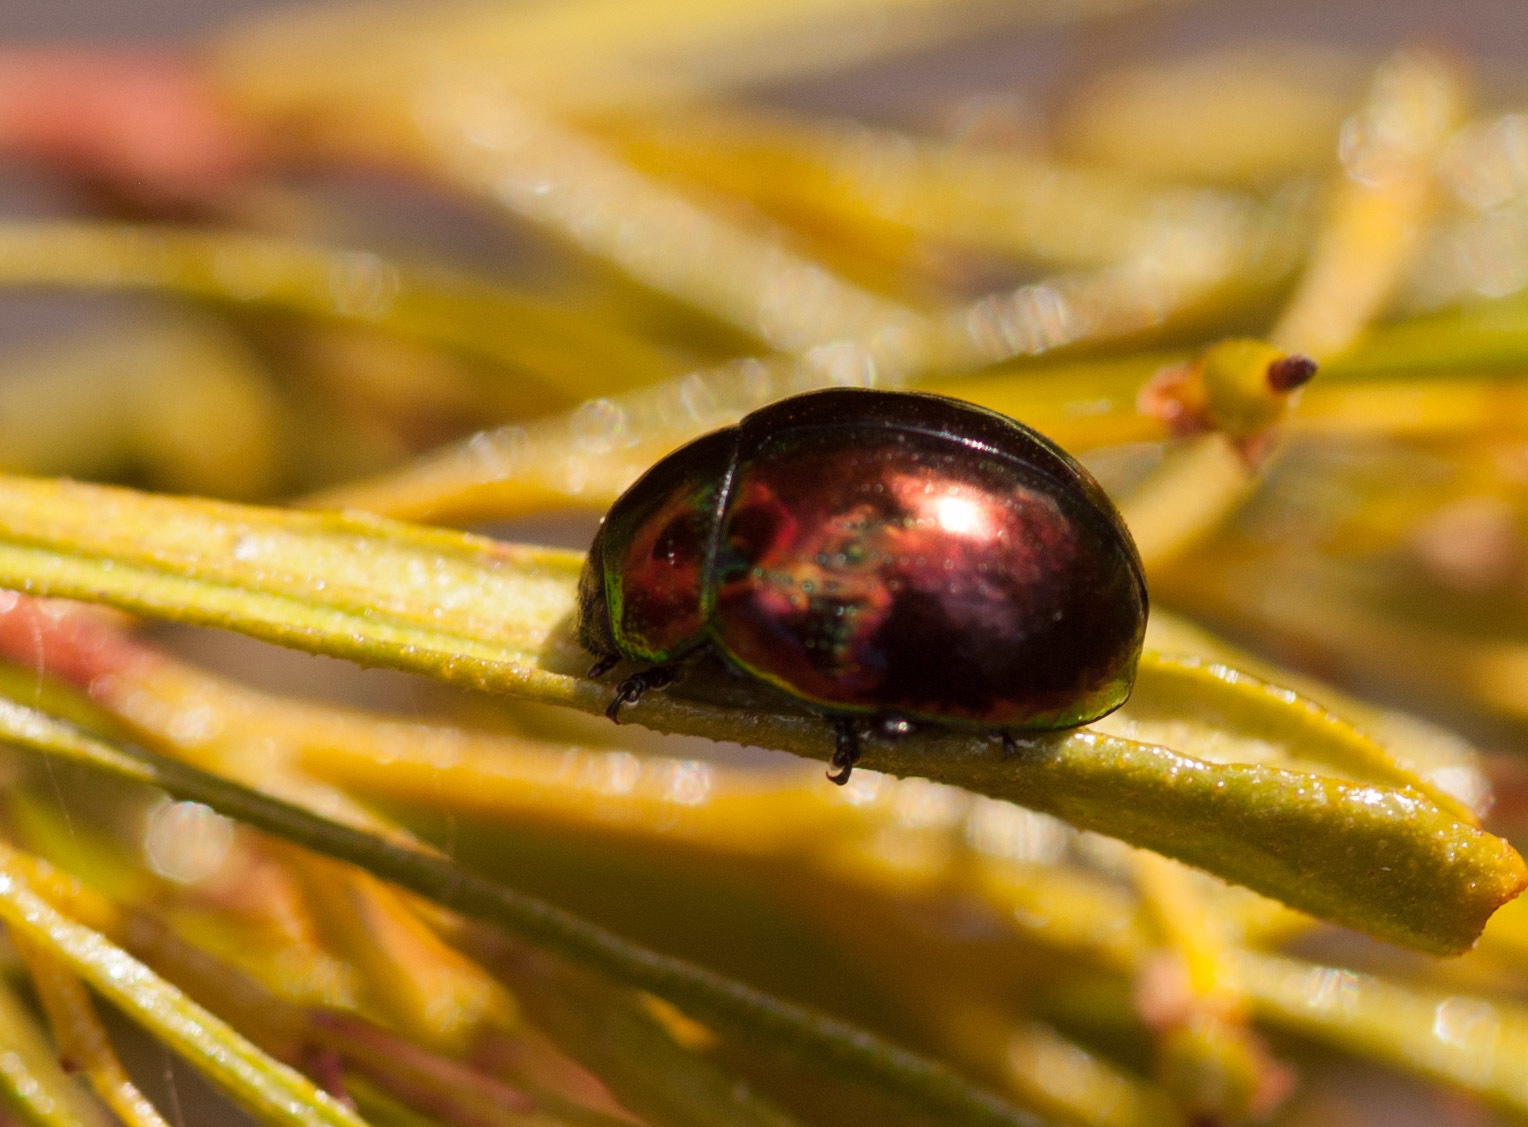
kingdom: Animalia
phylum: Arthropoda
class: Insecta
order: Coleoptera
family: Chrysomelidae
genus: Callidemum
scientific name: Callidemum
